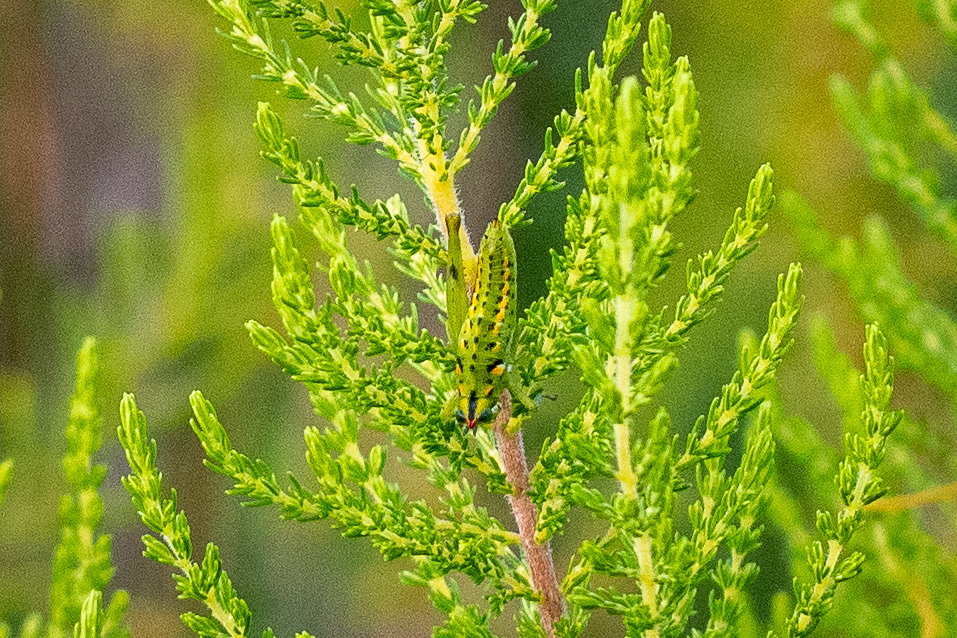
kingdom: Animalia
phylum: Arthropoda
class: Insecta
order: Orthoptera
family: Thericleidae
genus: Thericlesiella
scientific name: Thericlesiella meridionalis
